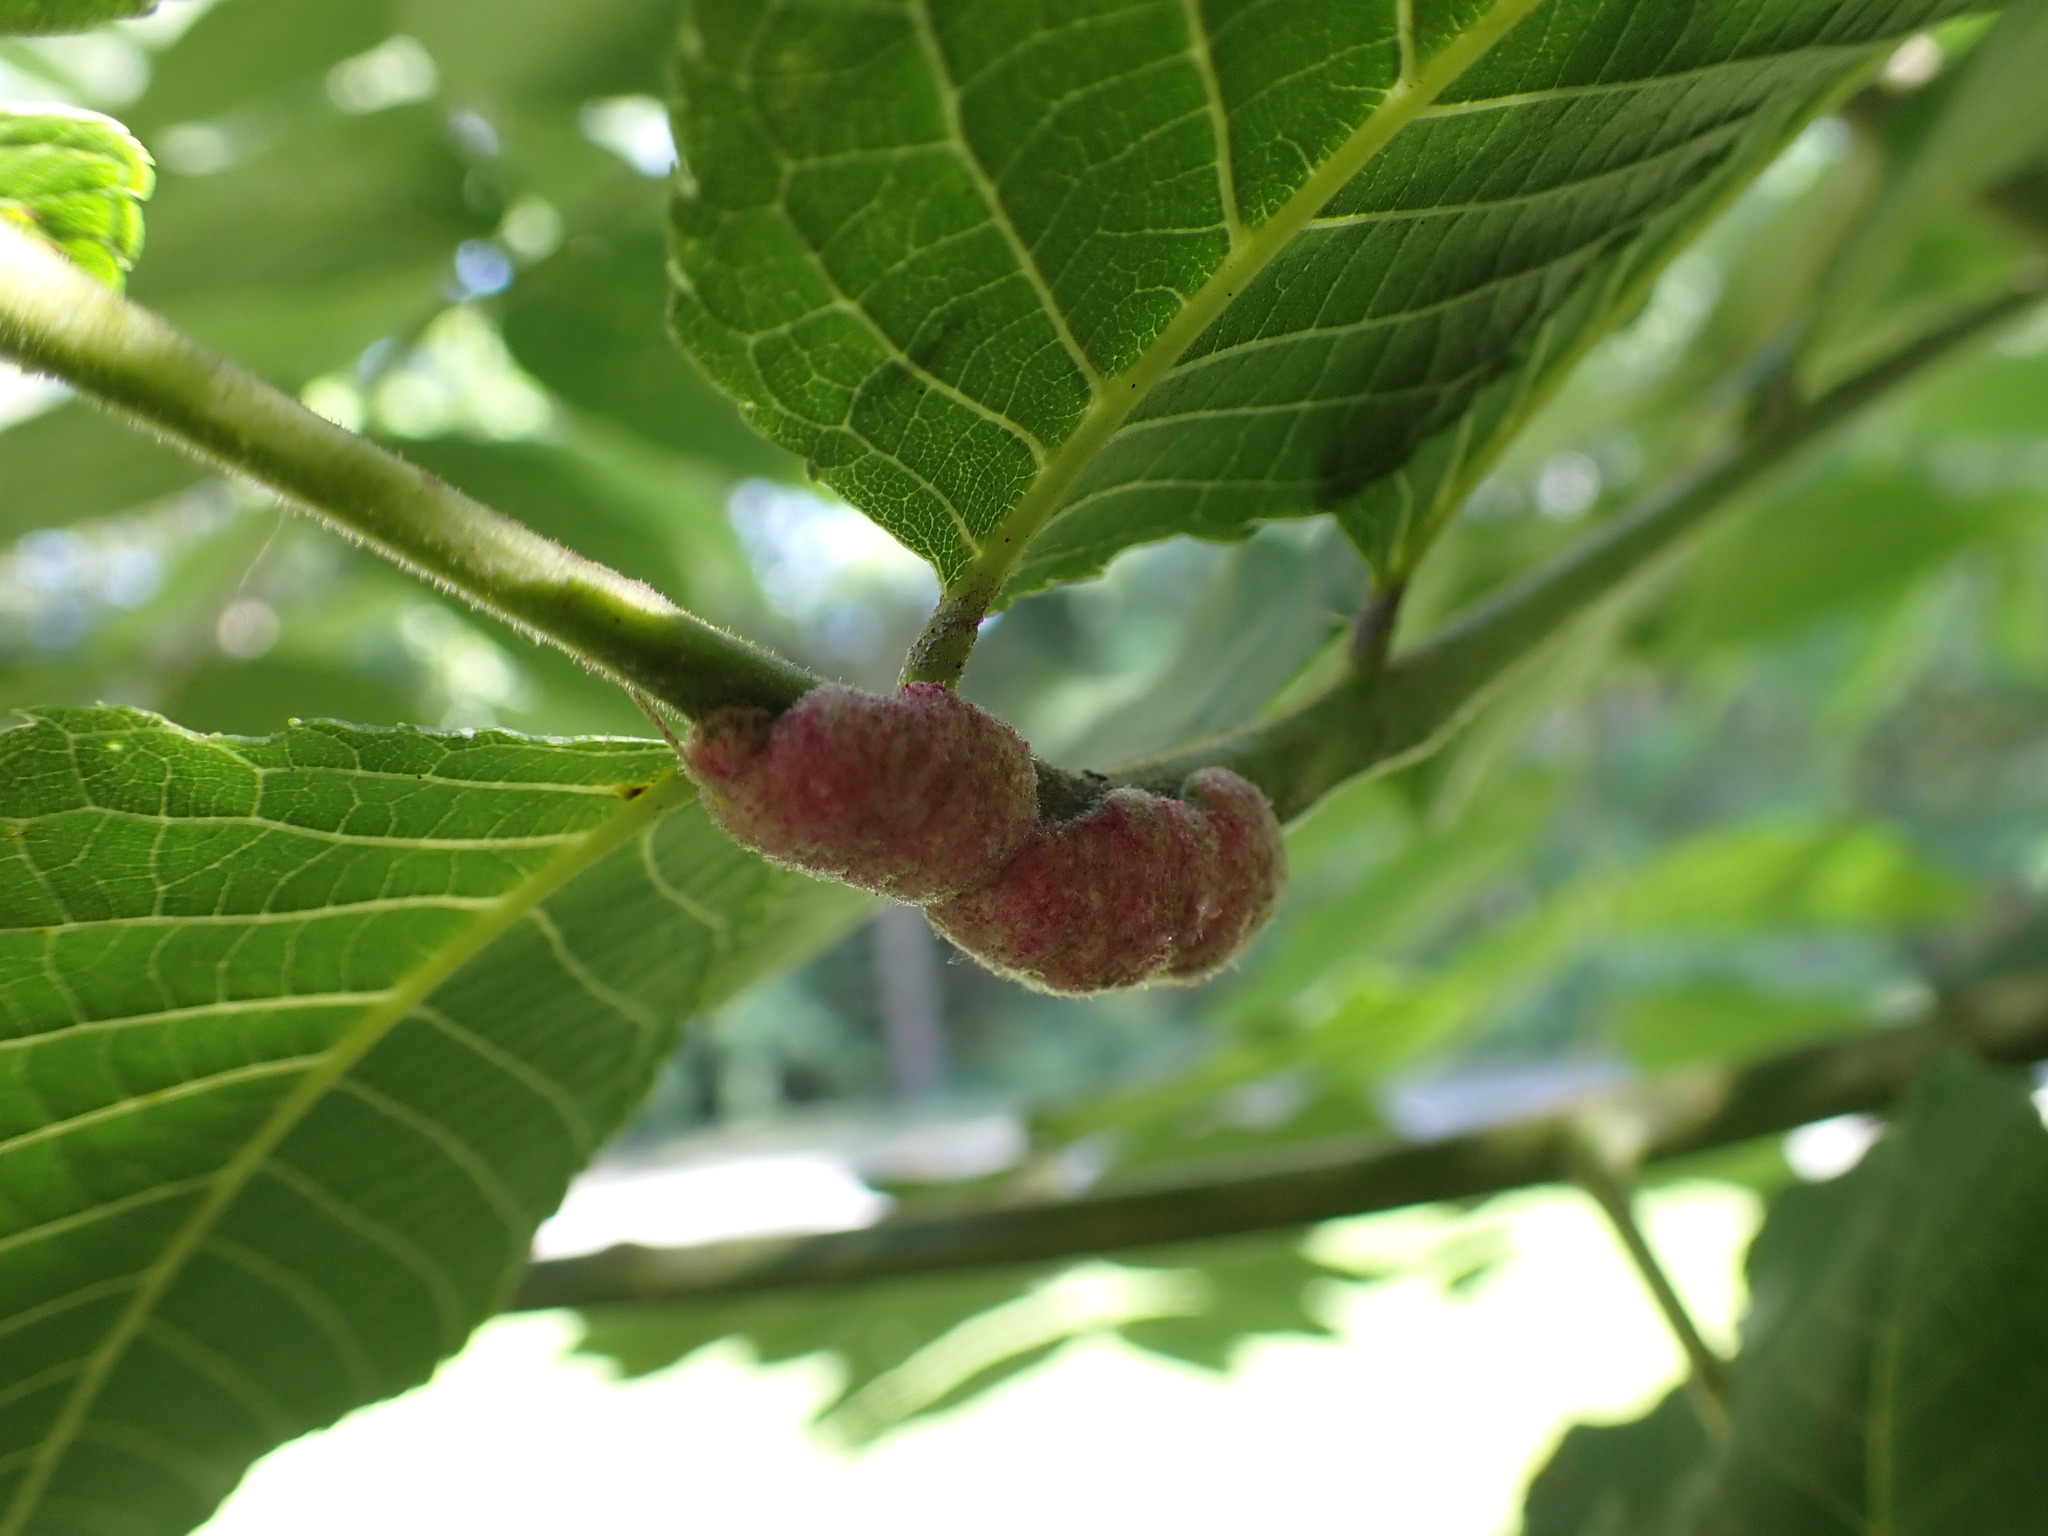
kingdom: Animalia
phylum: Arthropoda
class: Arachnida
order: Trombidiformes
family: Eriophyidae
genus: Aceria
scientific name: Aceria
